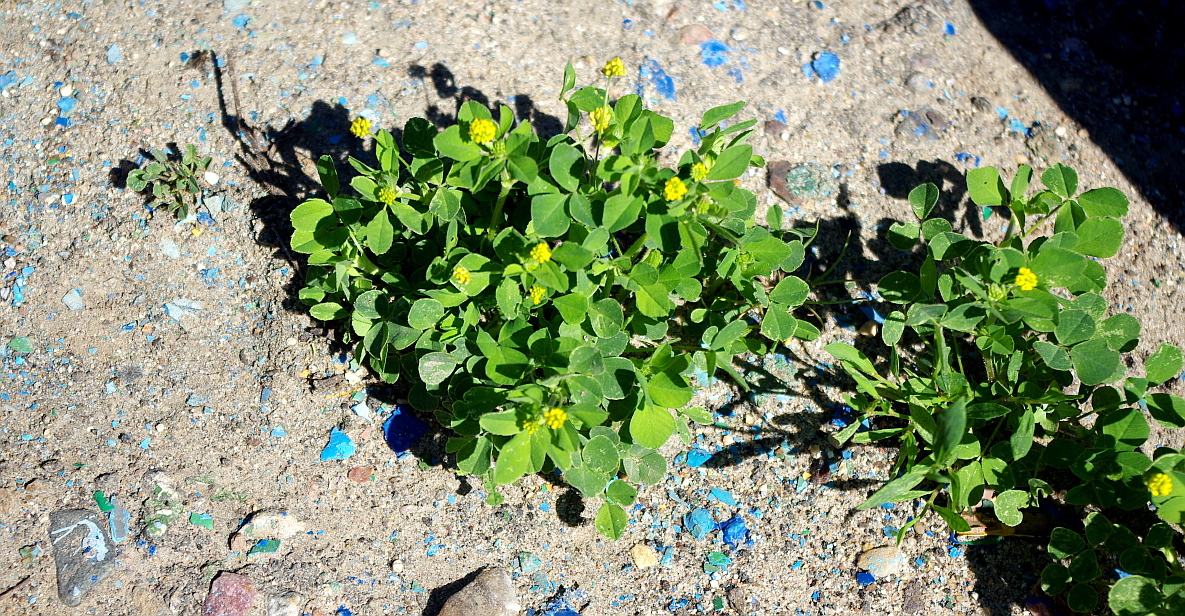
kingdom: Plantae
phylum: Tracheophyta
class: Magnoliopsida
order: Fabales
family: Fabaceae
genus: Medicago
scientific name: Medicago lupulina
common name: Black medick
